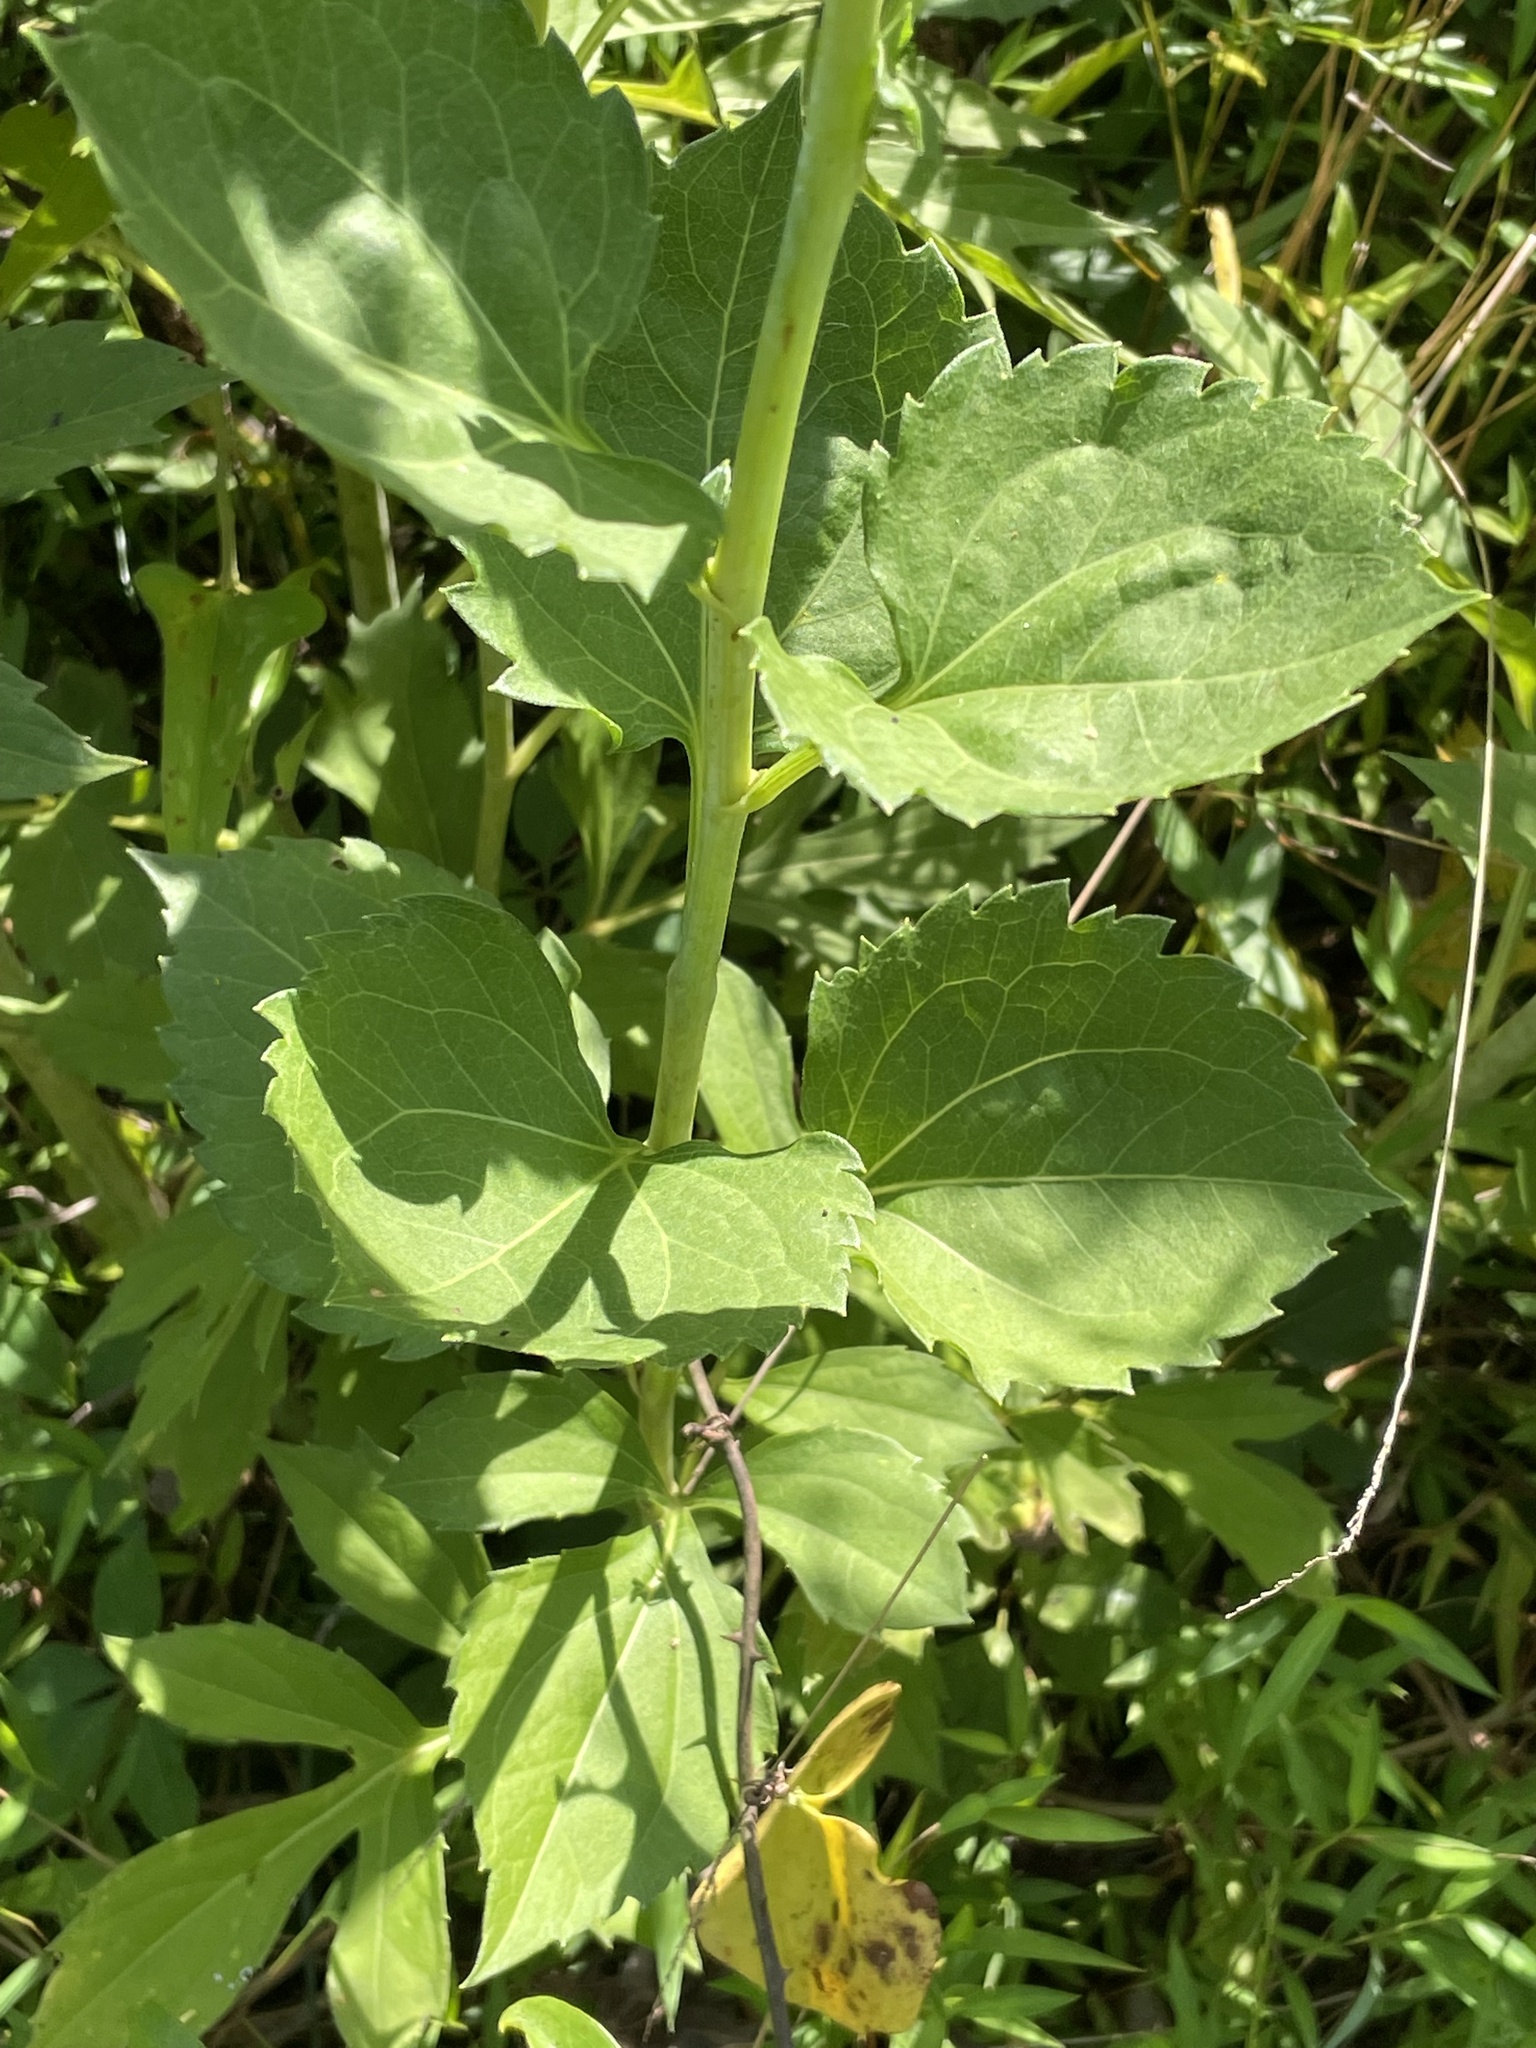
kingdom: Plantae
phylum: Tracheophyta
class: Magnoliopsida
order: Asterales
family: Asteraceae
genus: Rudbeckia
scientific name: Rudbeckia laciniata
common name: Coneflower
